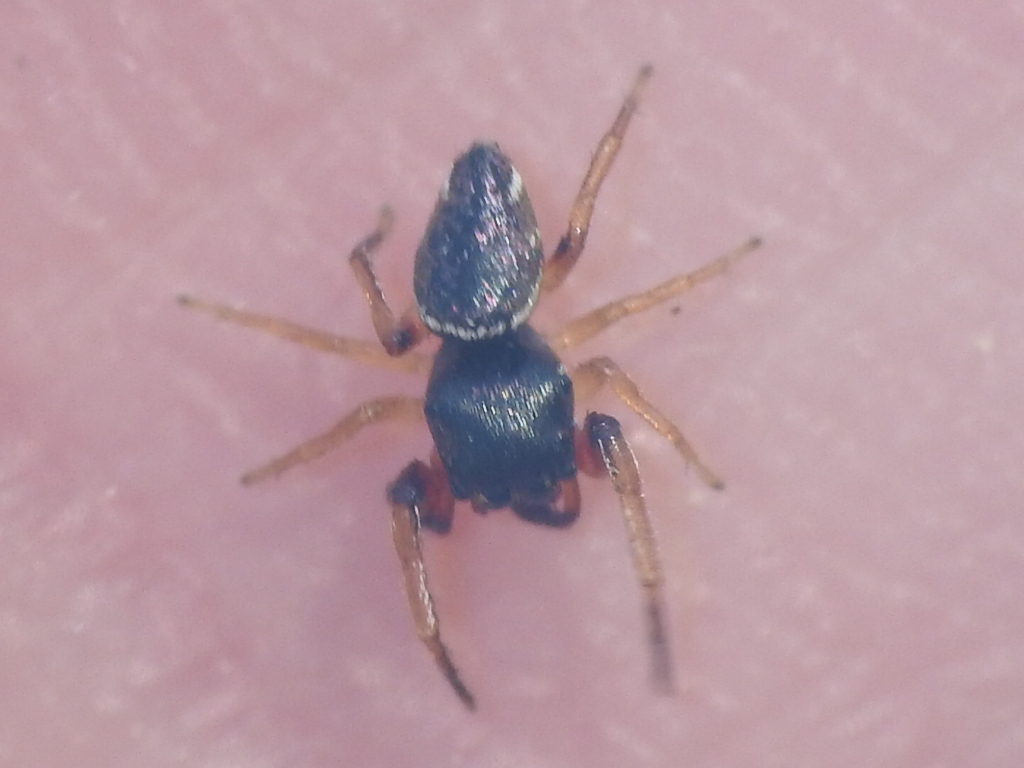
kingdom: Animalia
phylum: Arthropoda
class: Arachnida
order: Araneae
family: Salticidae
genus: Zygoballus
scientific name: Zygoballus rufipes
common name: Jumping spiders
